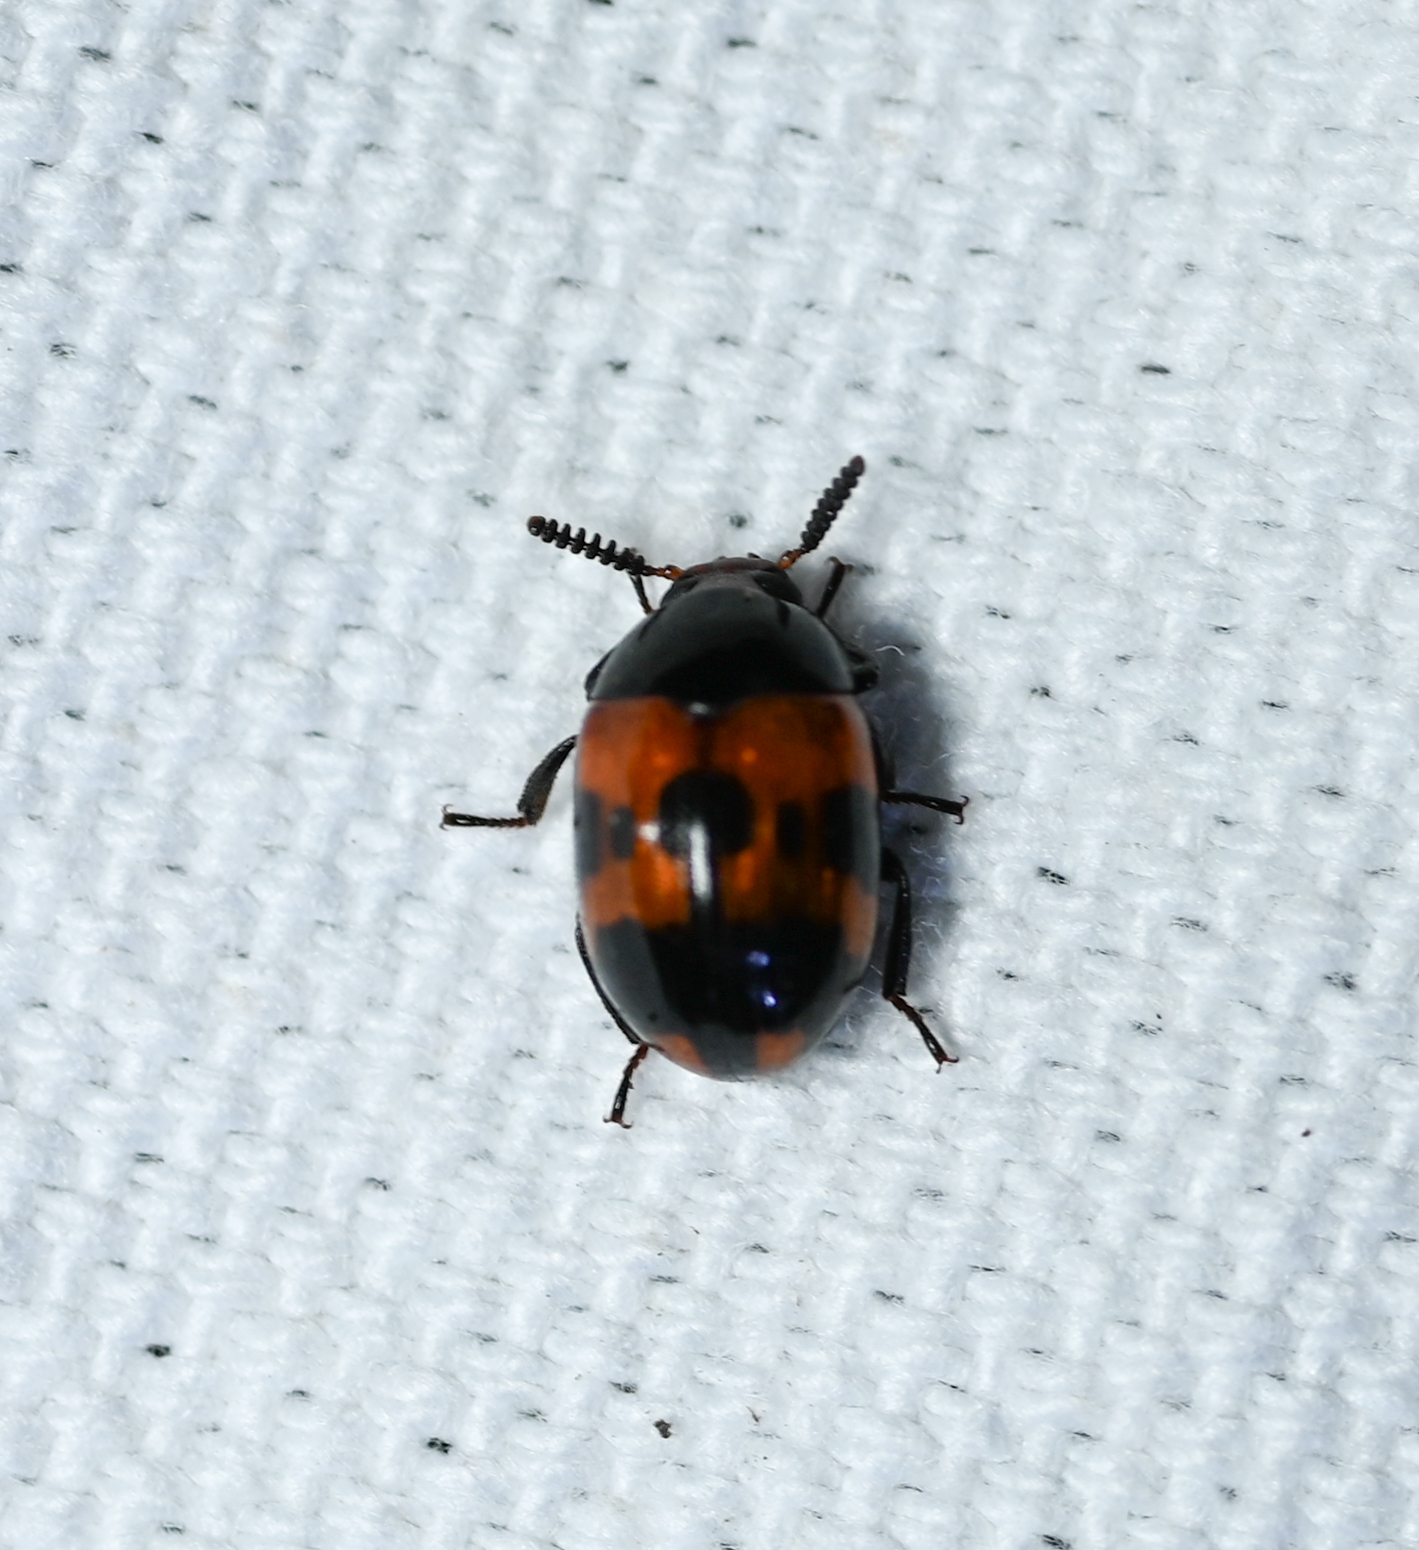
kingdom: Animalia
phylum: Arthropoda
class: Insecta
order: Coleoptera
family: Tenebrionidae
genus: Diaperis
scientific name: Diaperis nigronotata
